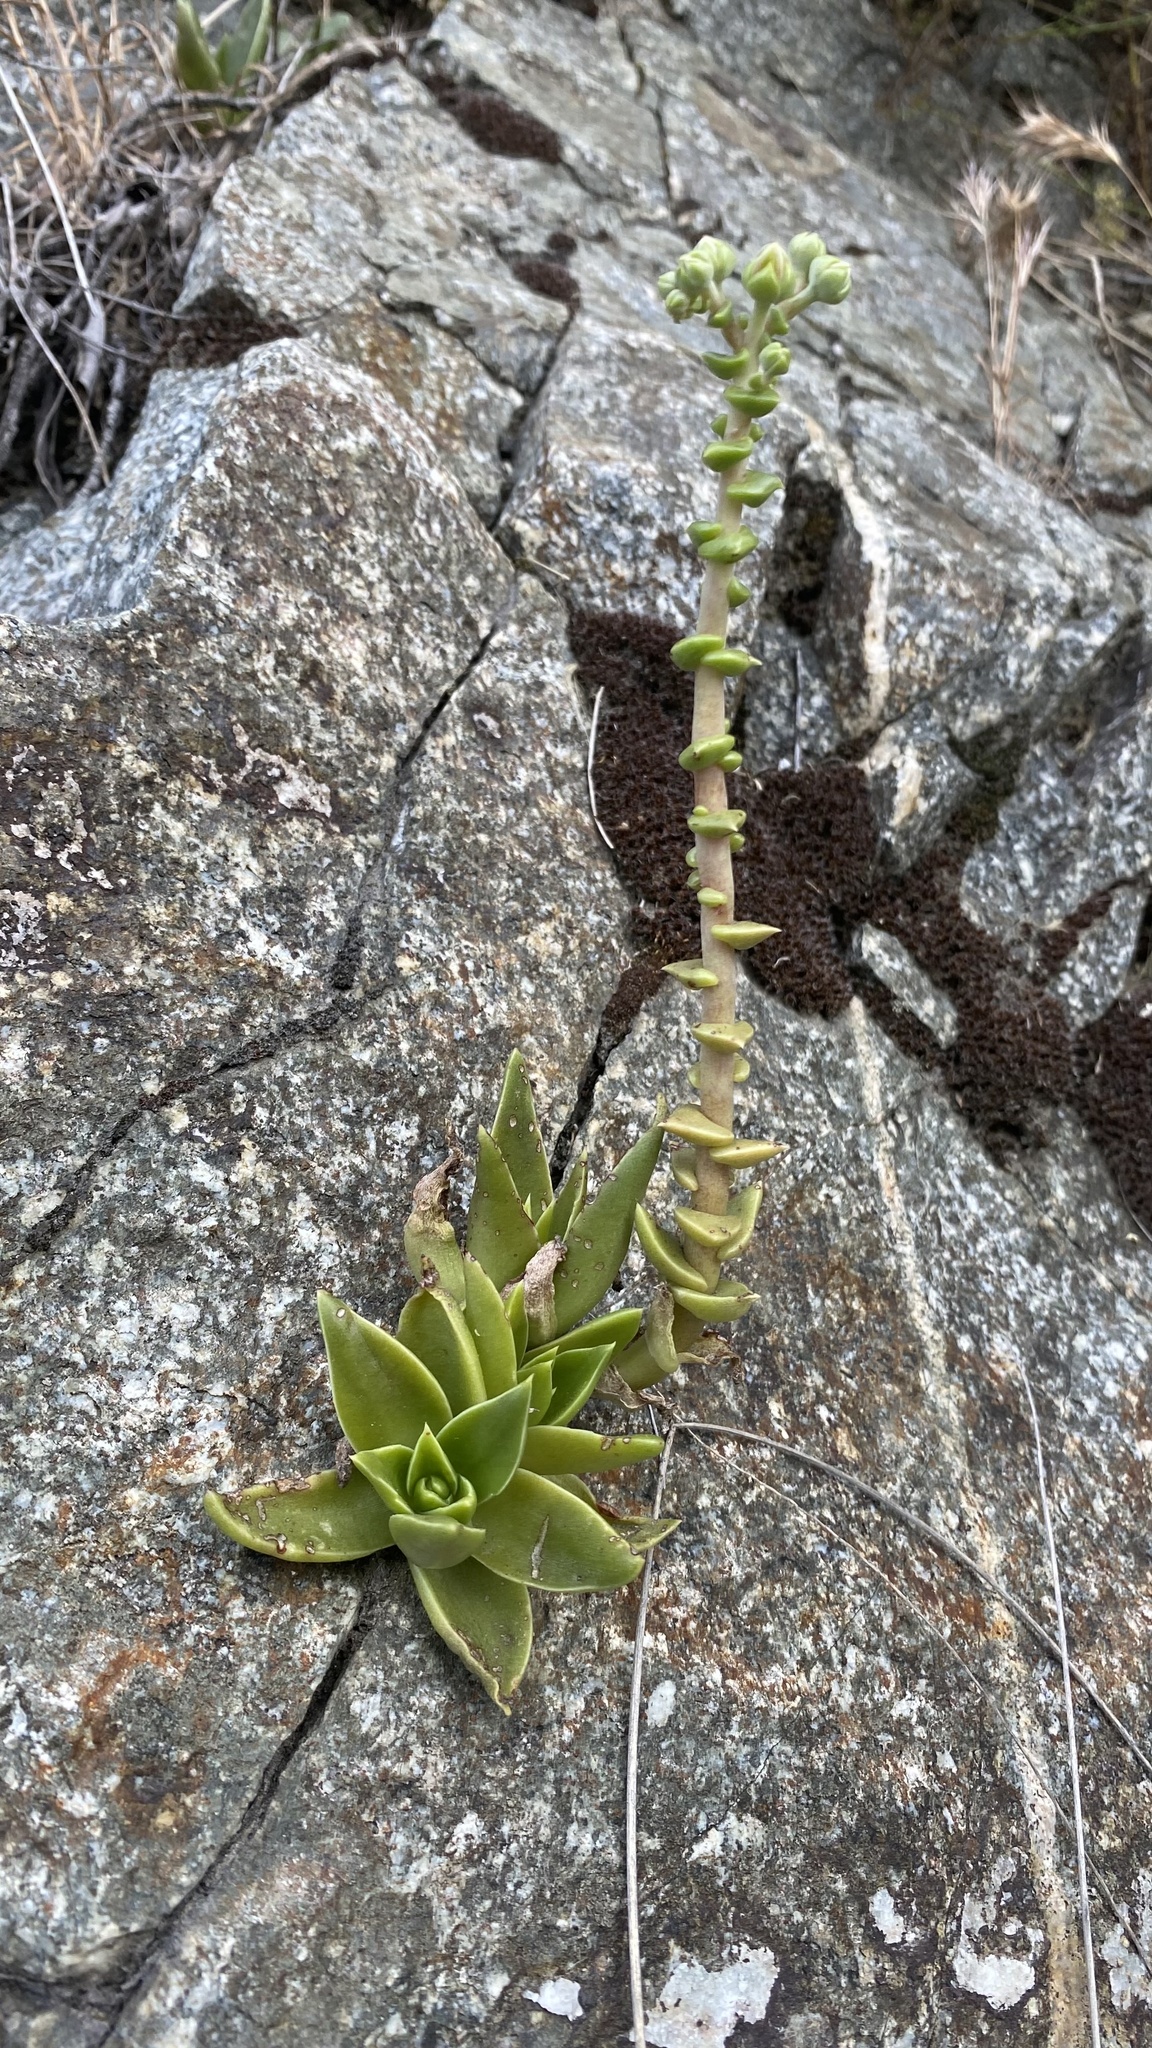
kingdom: Plantae
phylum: Tracheophyta
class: Magnoliopsida
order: Saxifragales
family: Crassulaceae
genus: Dudleya
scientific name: Dudleya lanceolata
